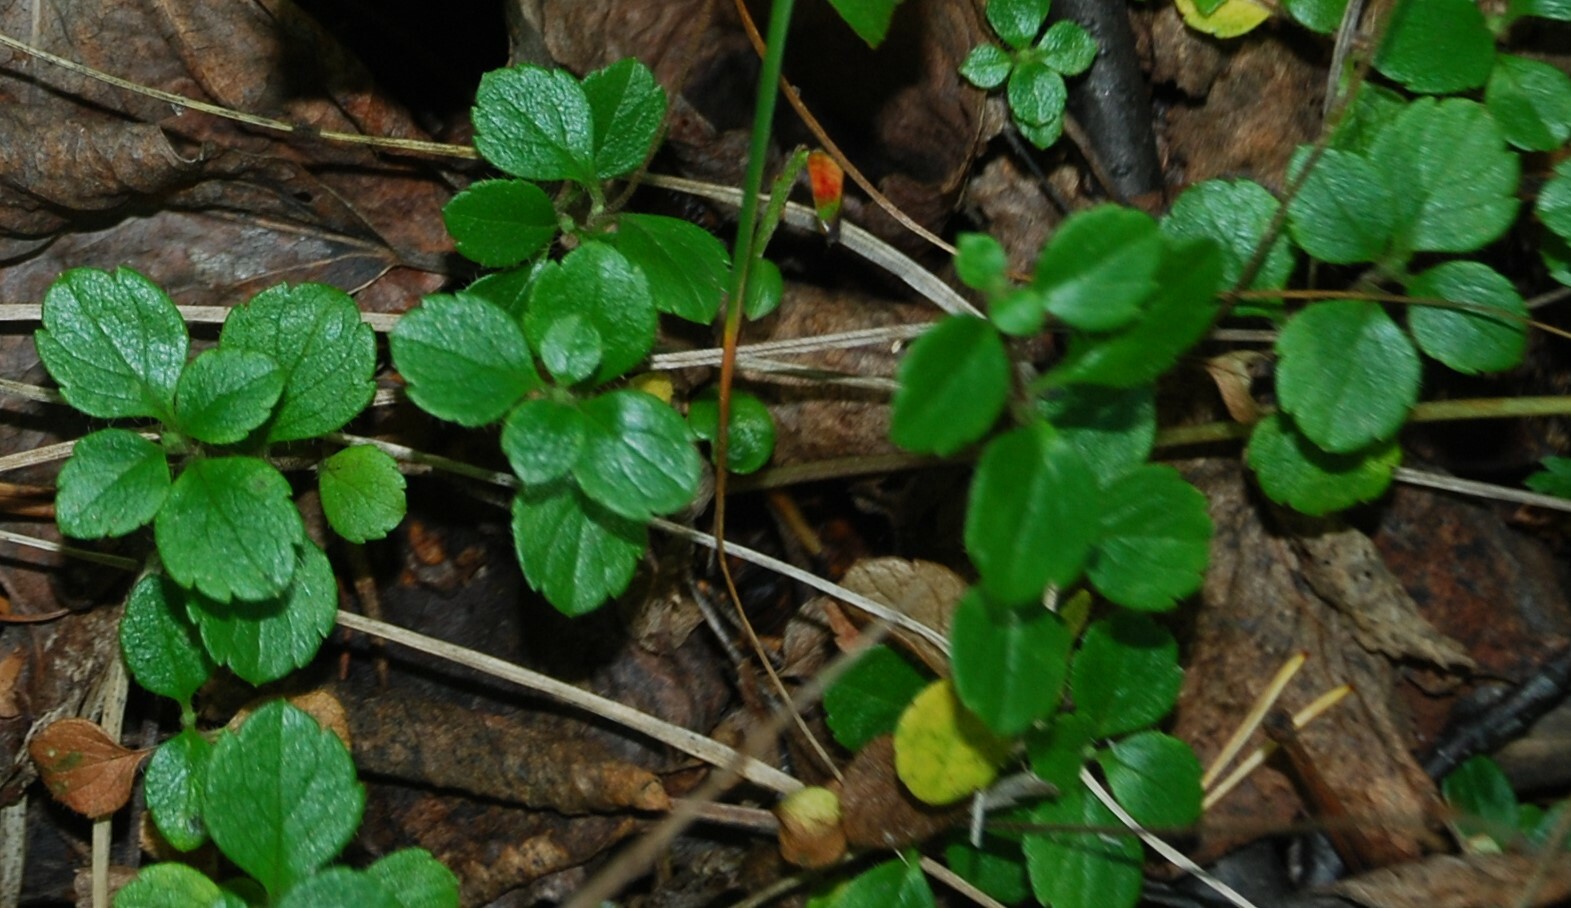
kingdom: Plantae
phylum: Tracheophyta
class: Magnoliopsida
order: Dipsacales
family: Caprifoliaceae
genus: Linnaea
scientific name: Linnaea borealis
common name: Twinflower
